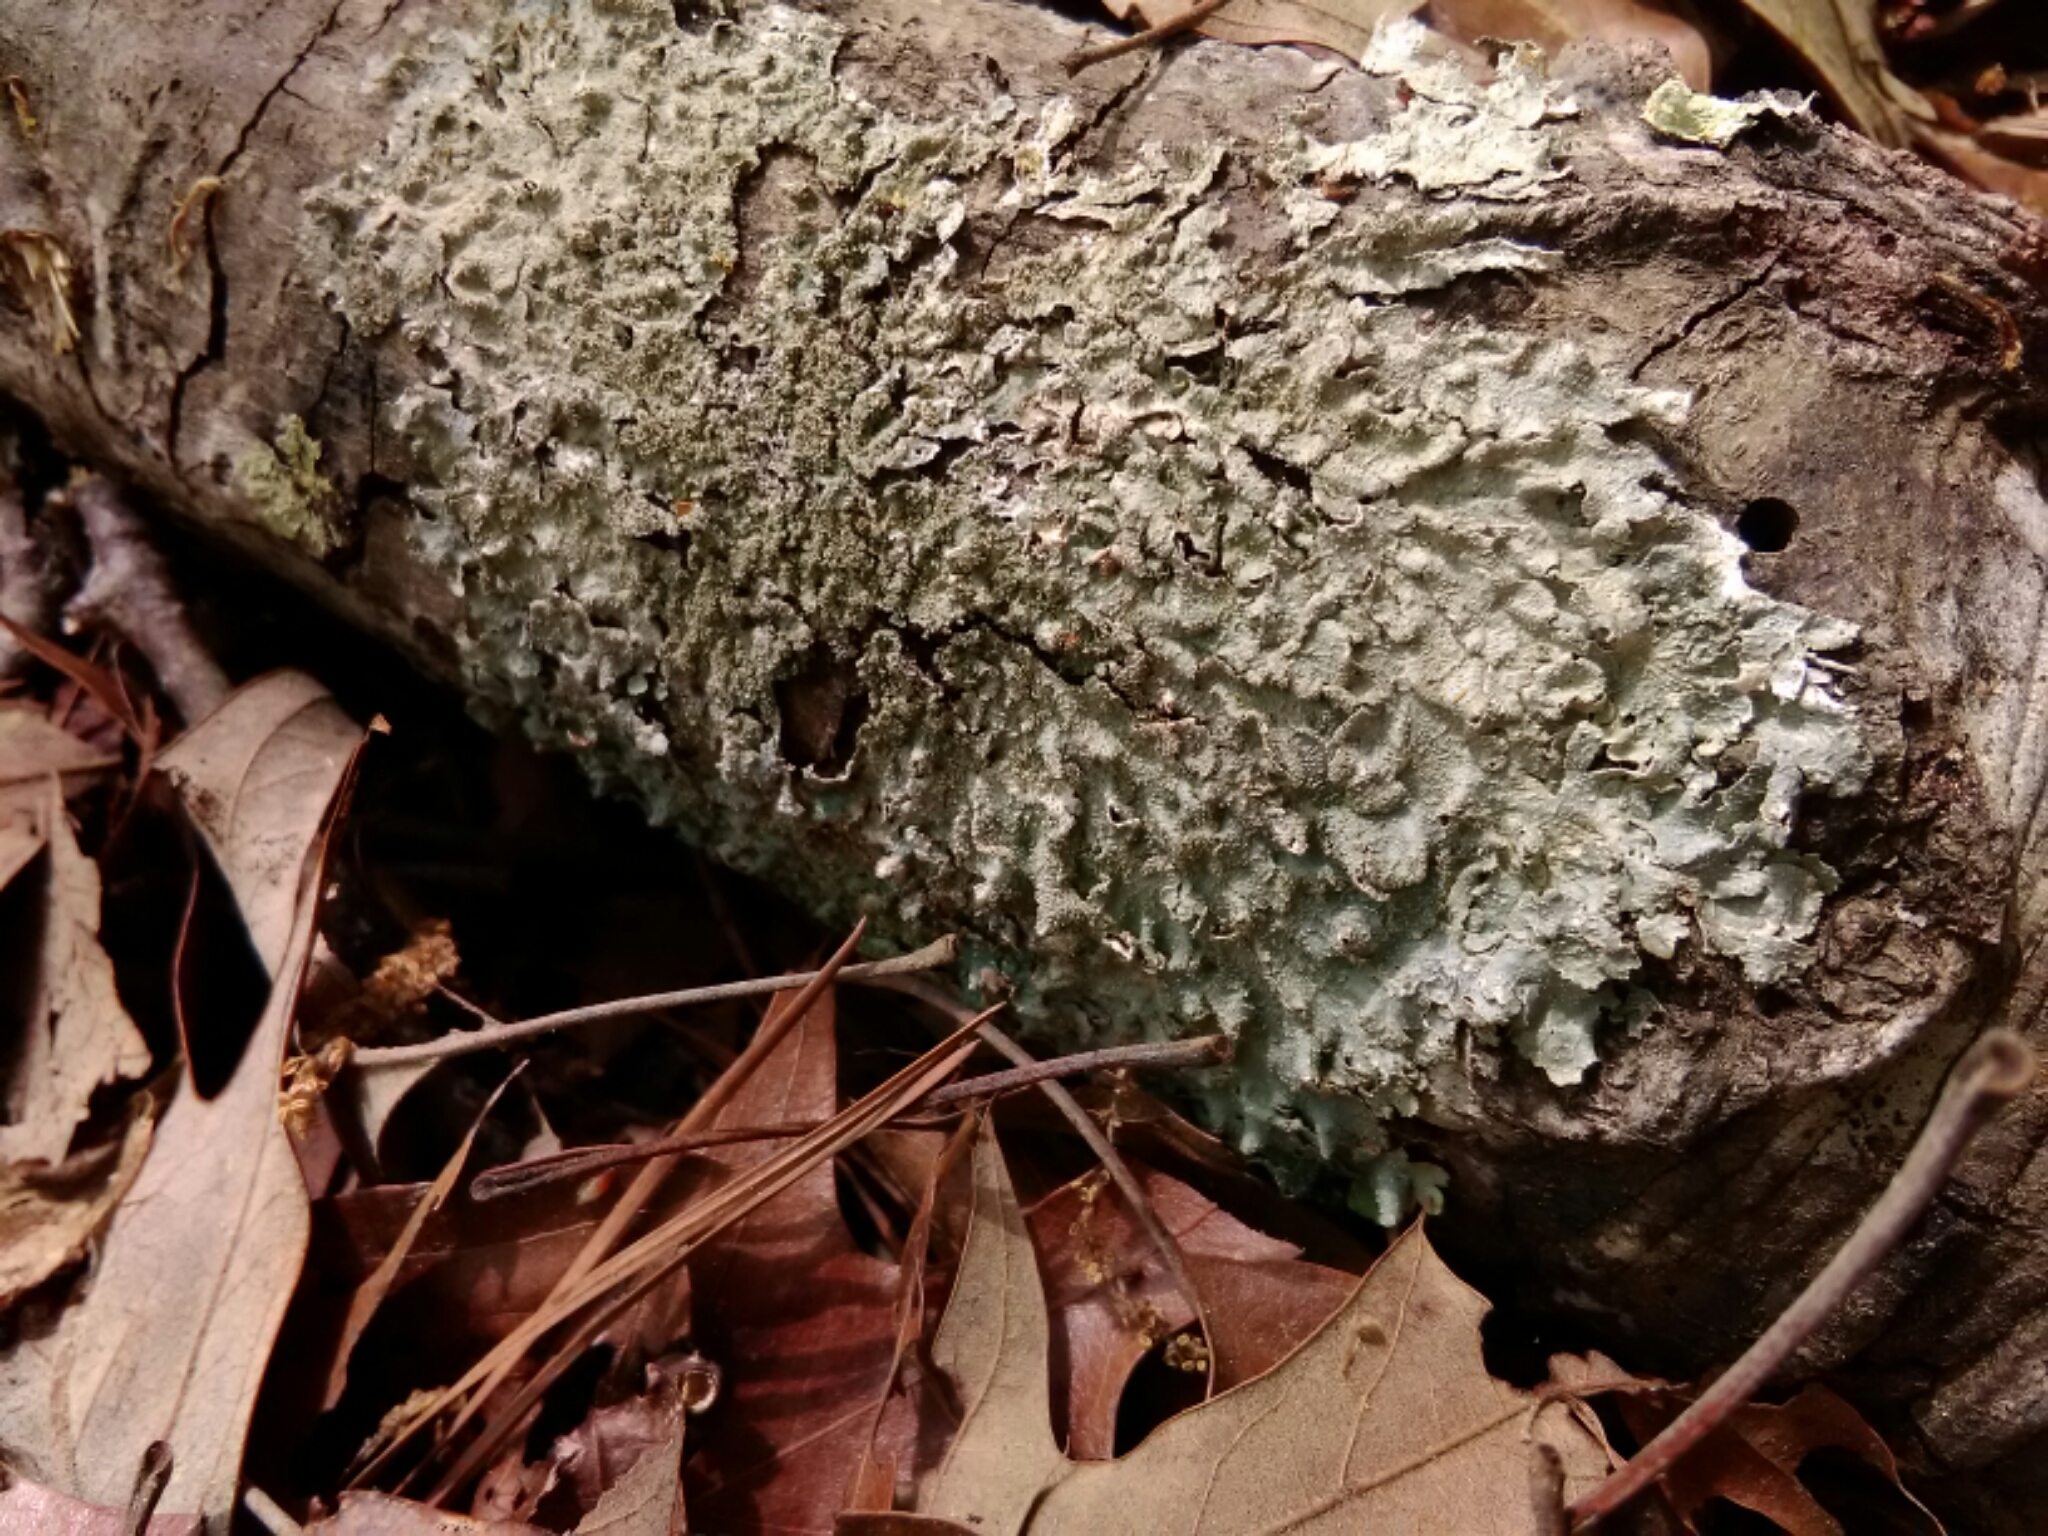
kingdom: Fungi
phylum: Ascomycota
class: Lecanoromycetes
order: Lecanorales
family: Parmeliaceae
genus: Punctelia
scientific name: Punctelia rudecta
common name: Rough speckled shield lichen
